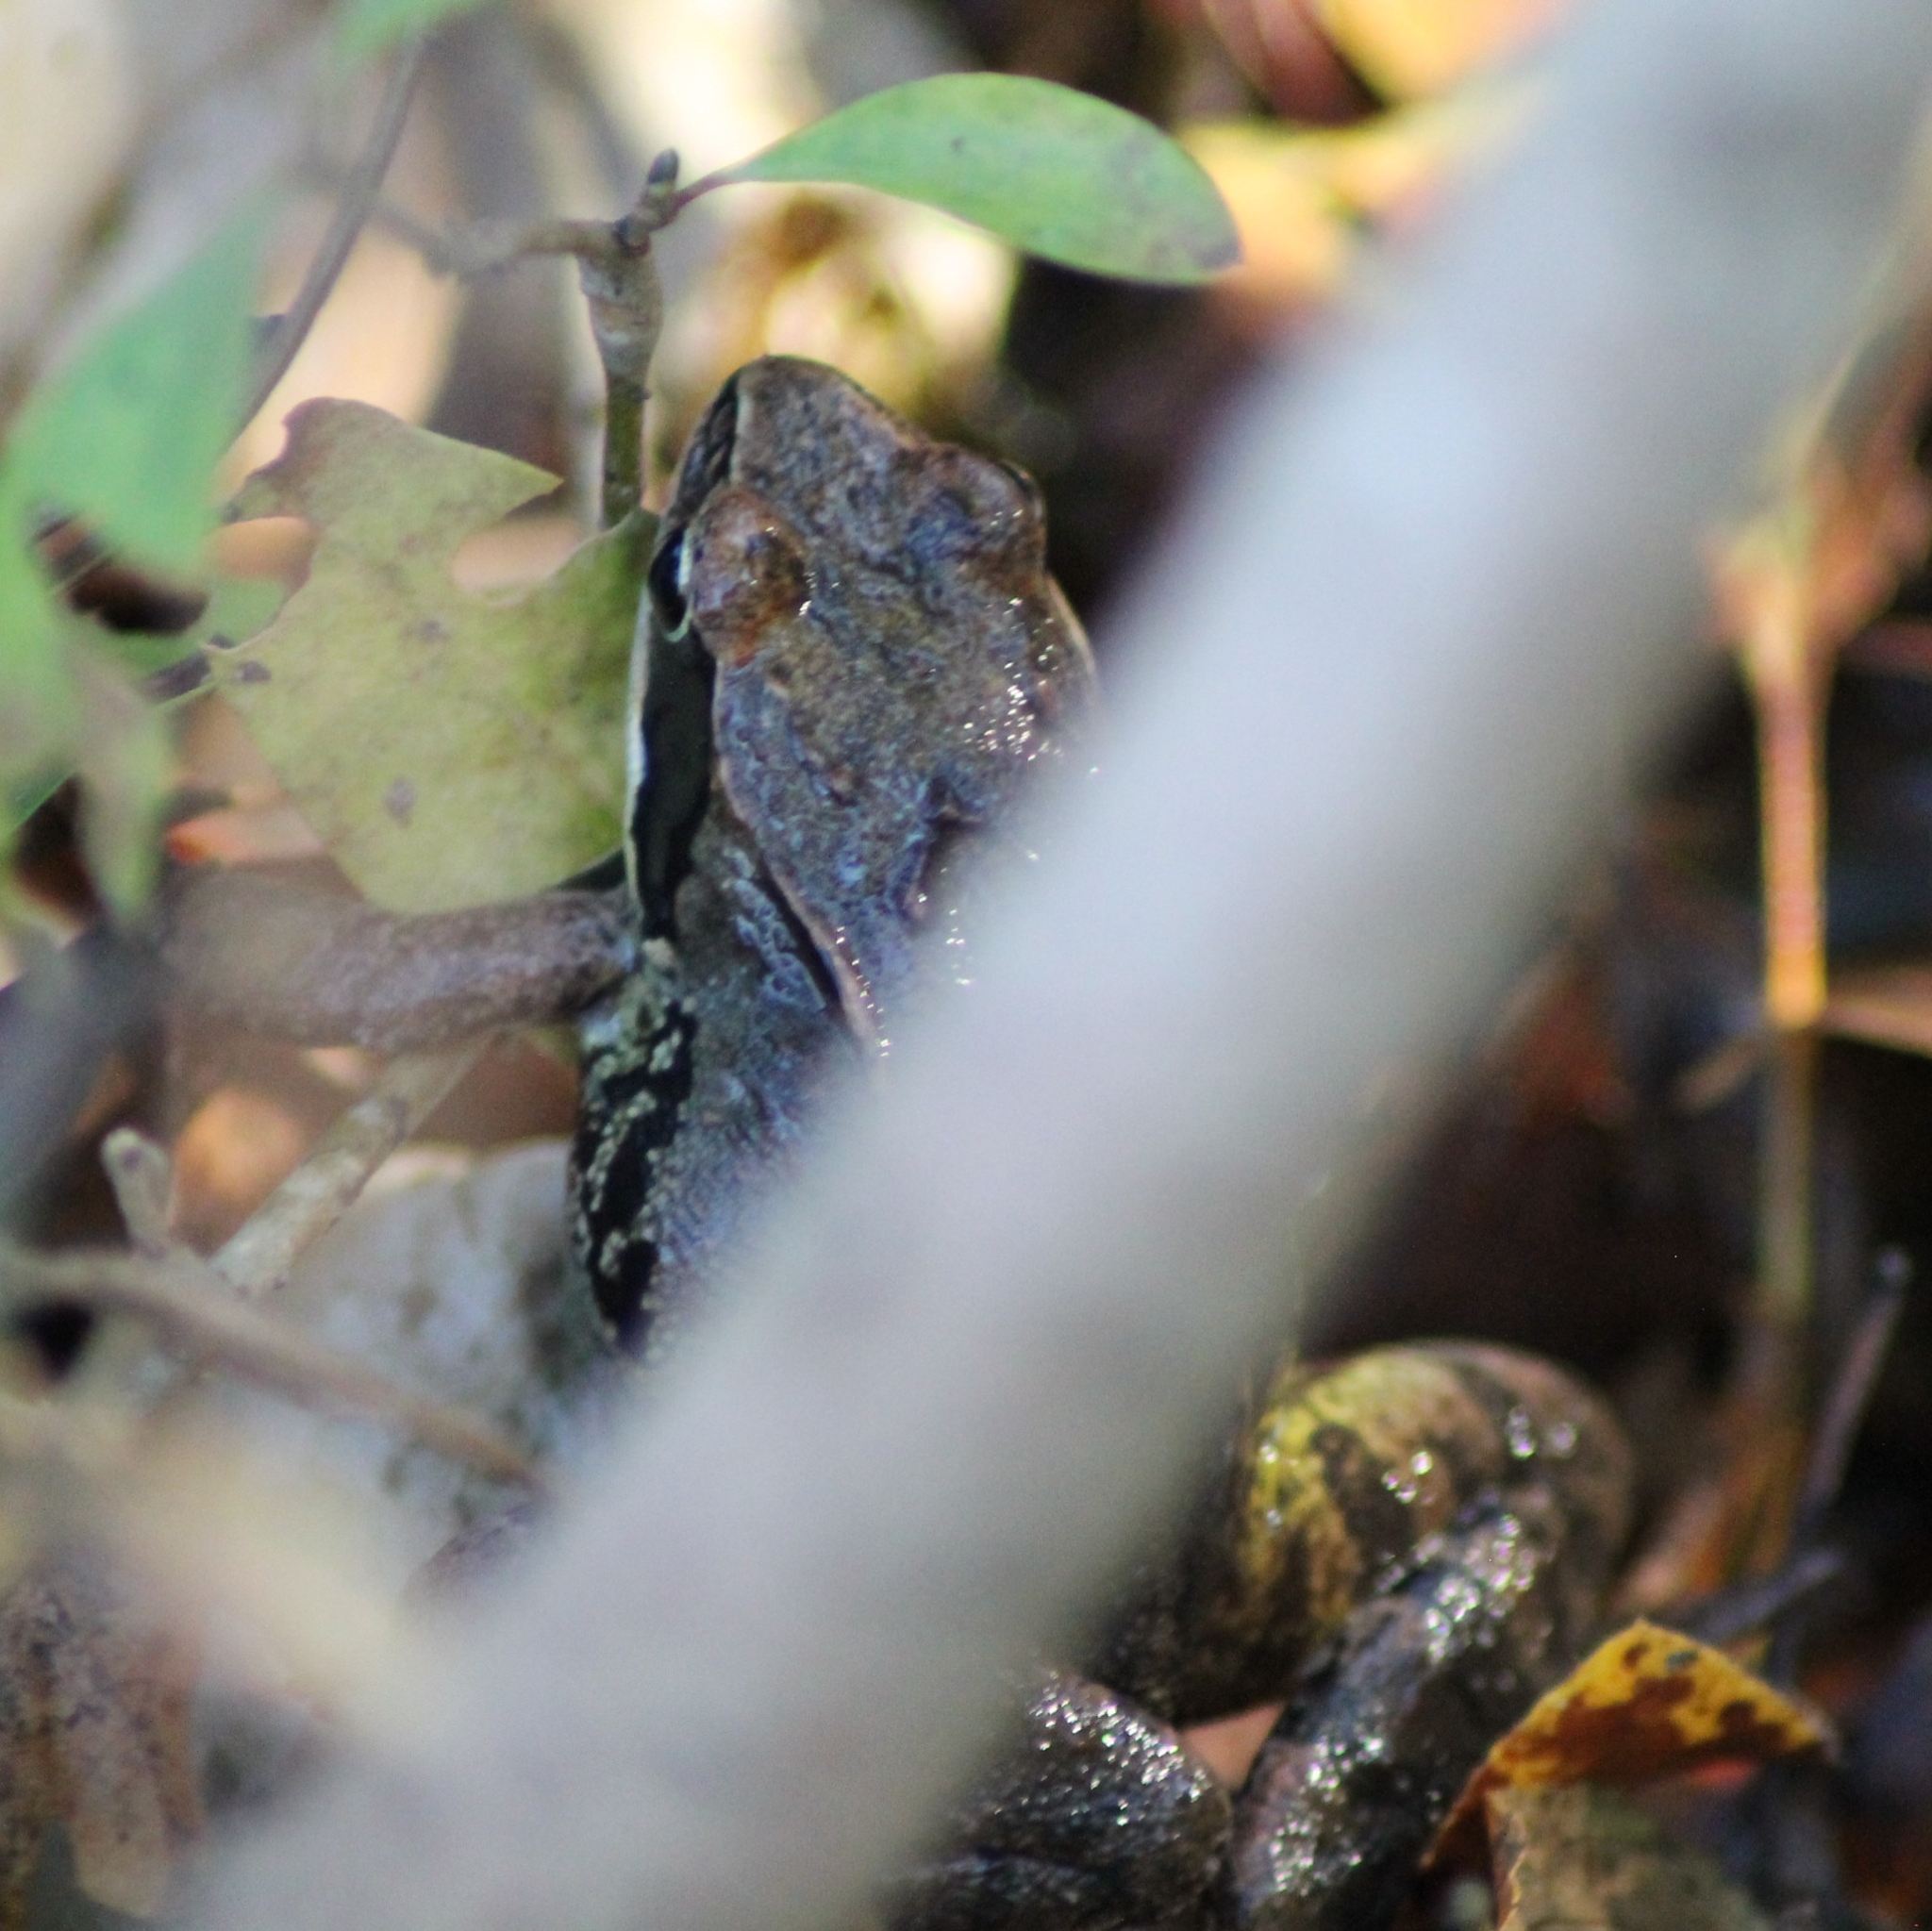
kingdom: Animalia
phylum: Chordata
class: Amphibia
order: Anura
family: Ranidae
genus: Rana
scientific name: Rana dalmatina
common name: Agile frog
